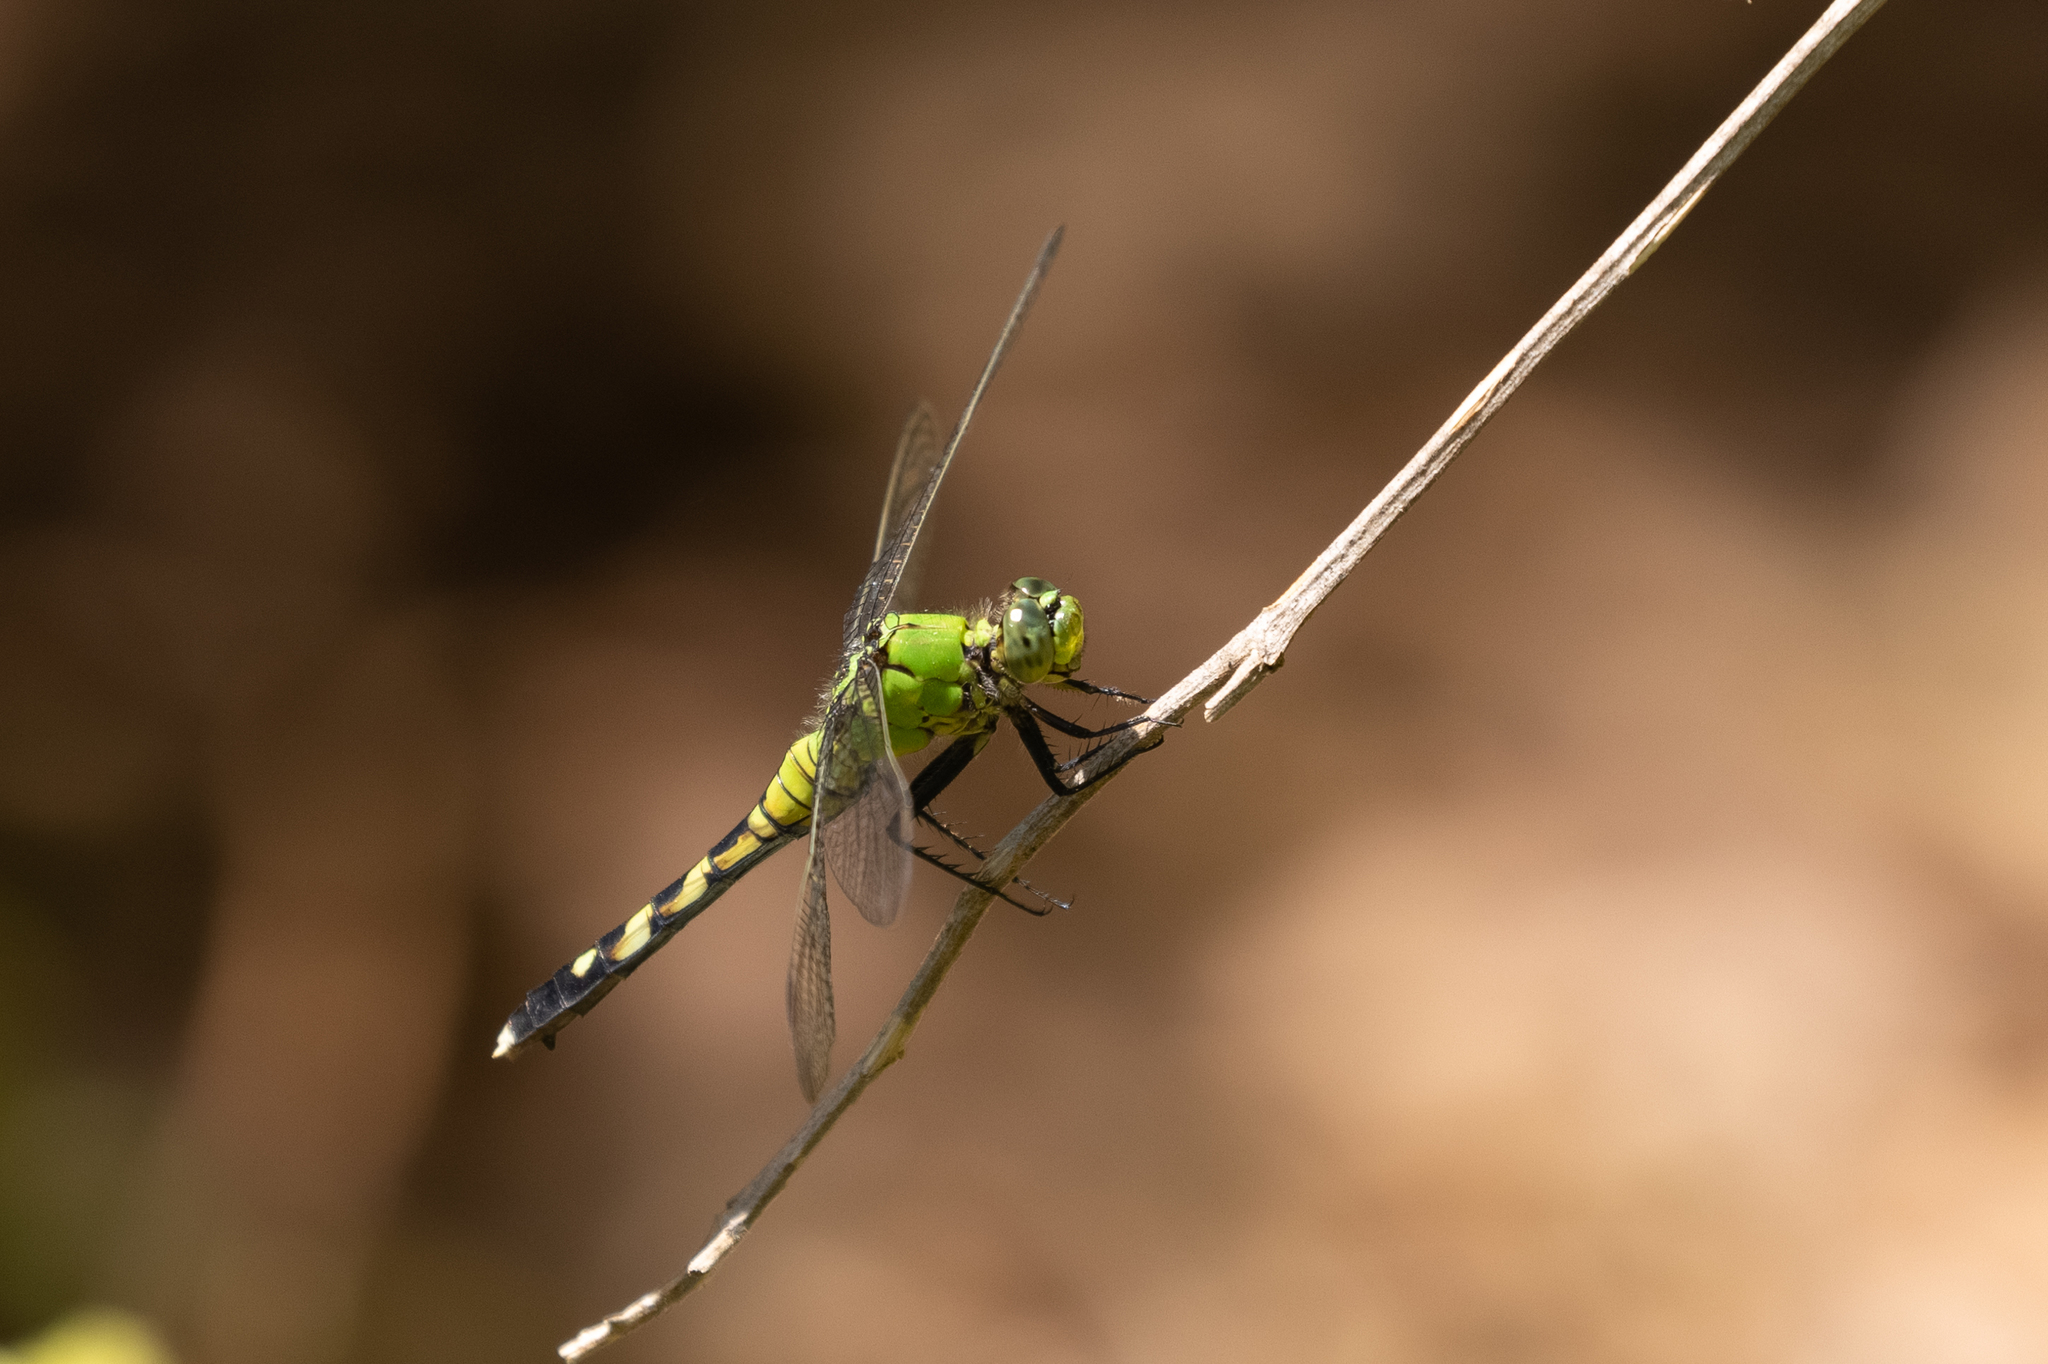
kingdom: Animalia
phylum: Arthropoda
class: Insecta
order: Odonata
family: Libellulidae
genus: Erythemis
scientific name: Erythemis simplicicollis
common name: Eastern pondhawk
